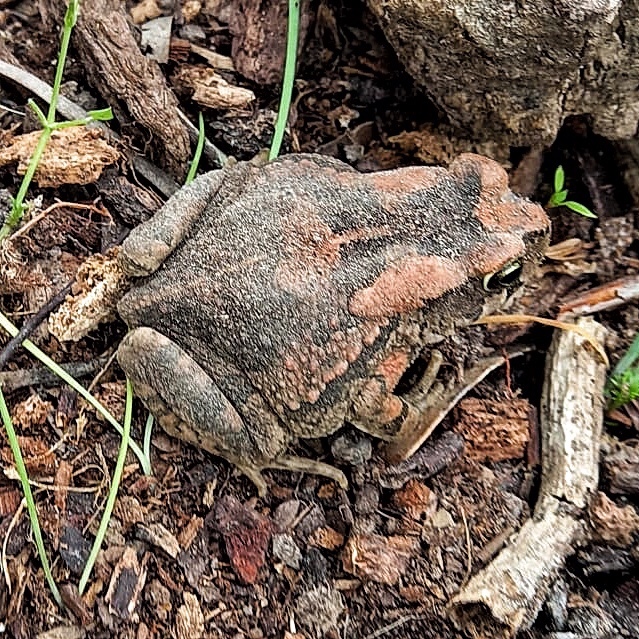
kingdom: Animalia
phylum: Chordata
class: Amphibia
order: Anura
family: Bufonidae
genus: Sclerophrys
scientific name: Sclerophrys capensis
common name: Ranger’s toad
